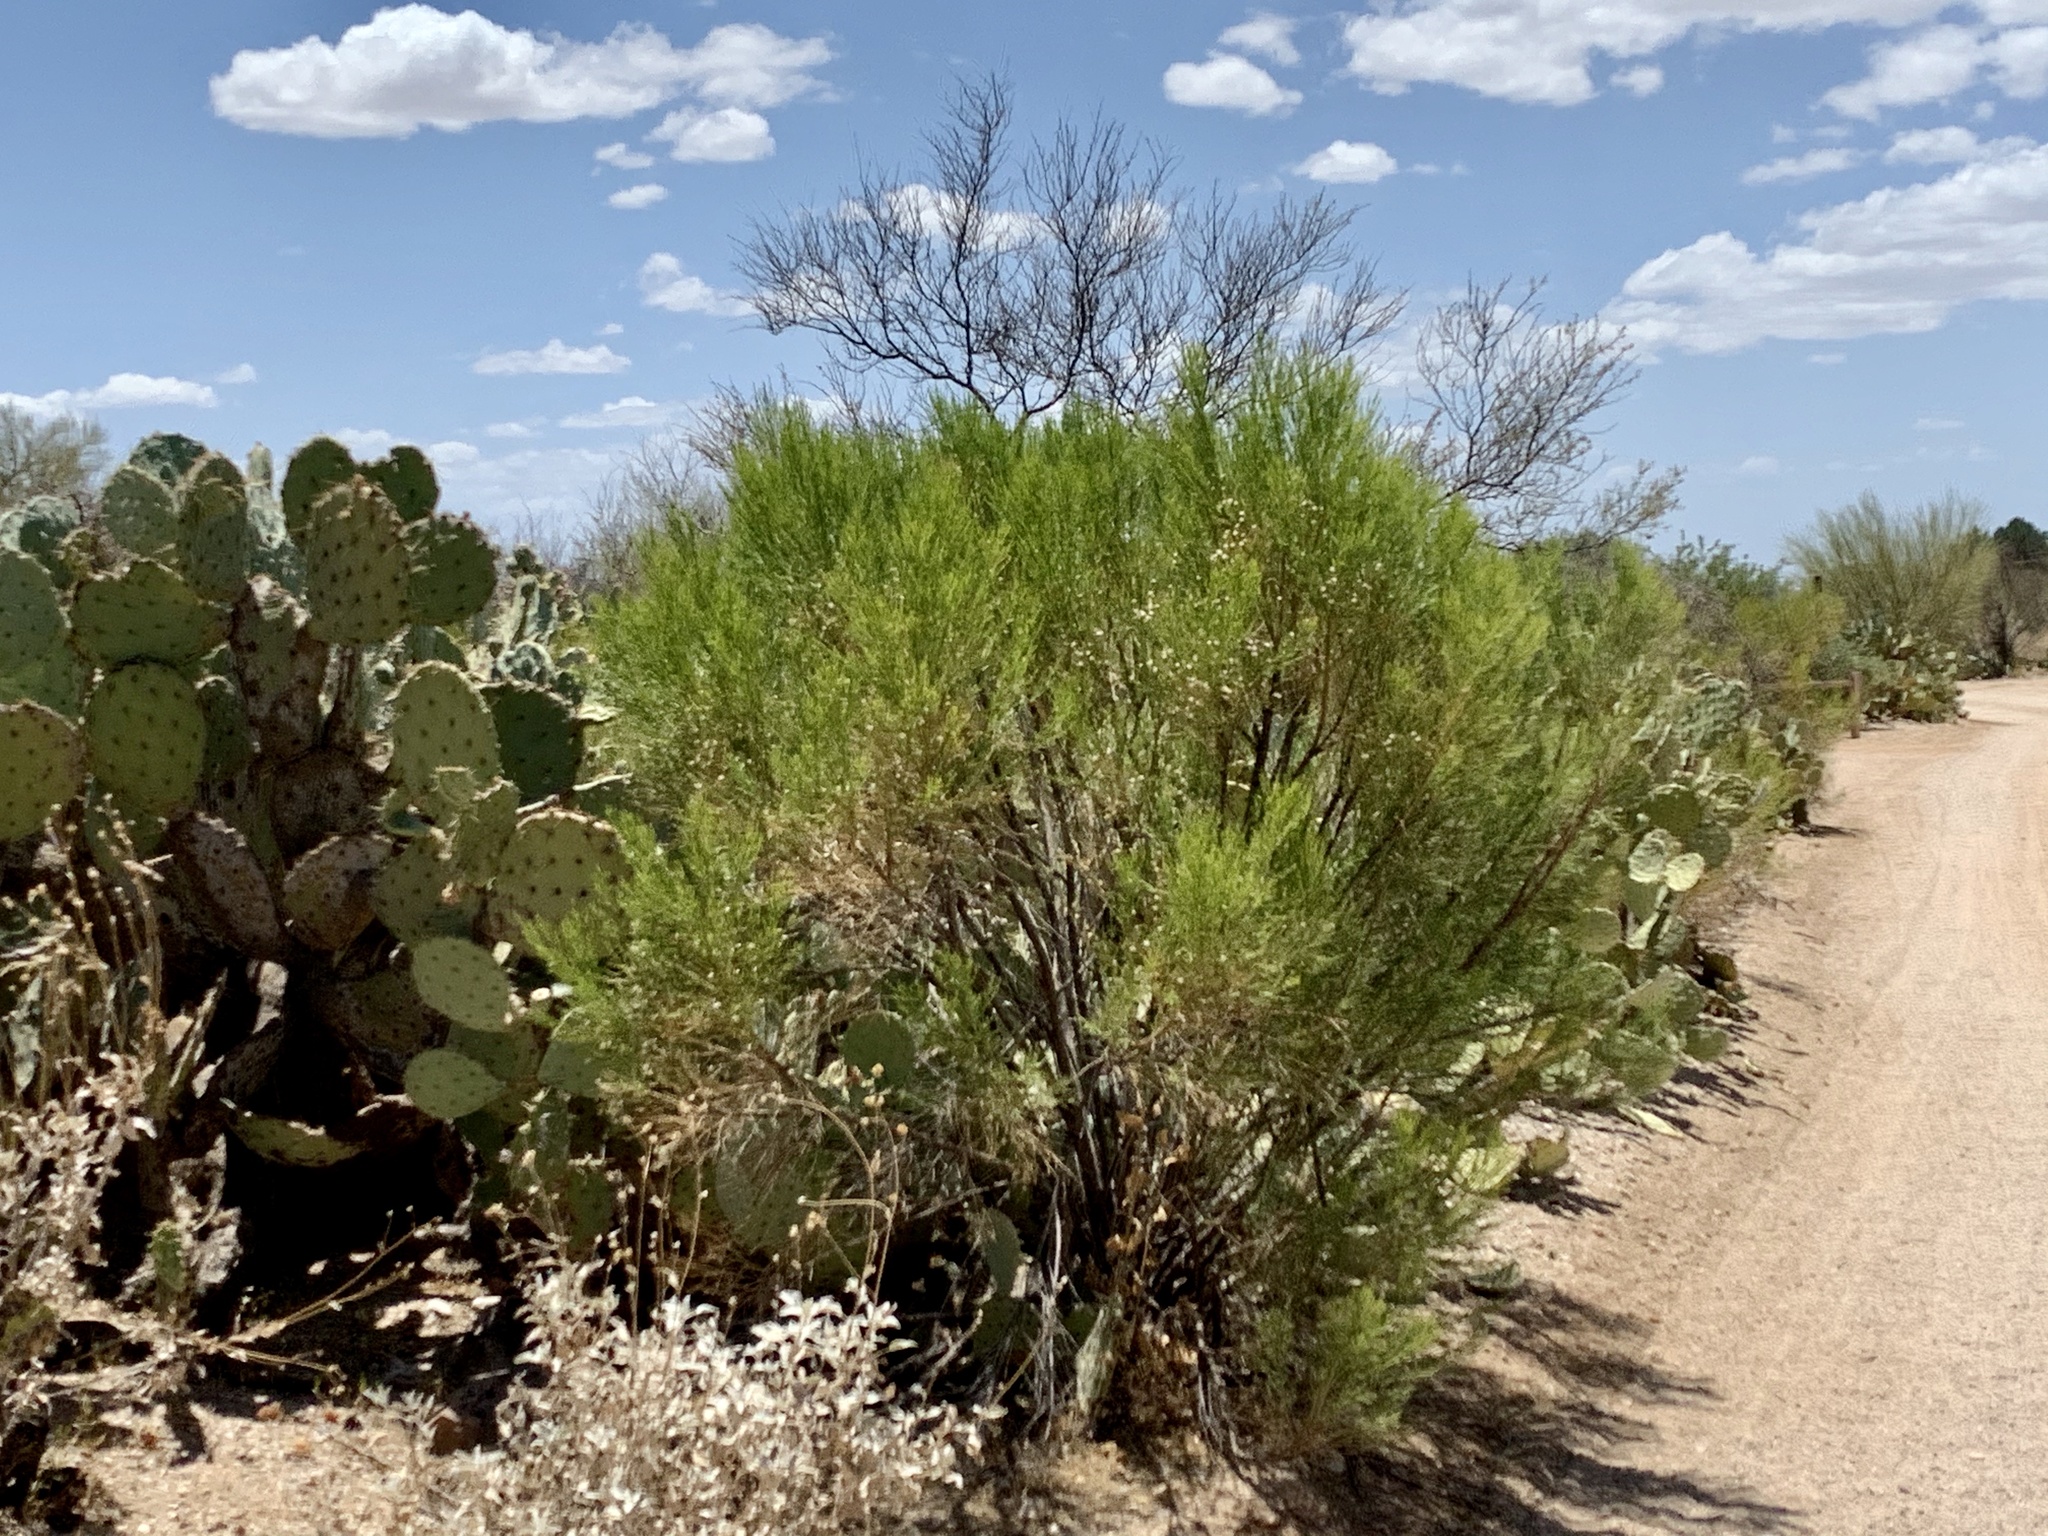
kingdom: Plantae
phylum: Tracheophyta
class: Magnoliopsida
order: Asterales
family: Asteraceae
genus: Baccharis
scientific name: Baccharis sarothroides
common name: Desert-broom
